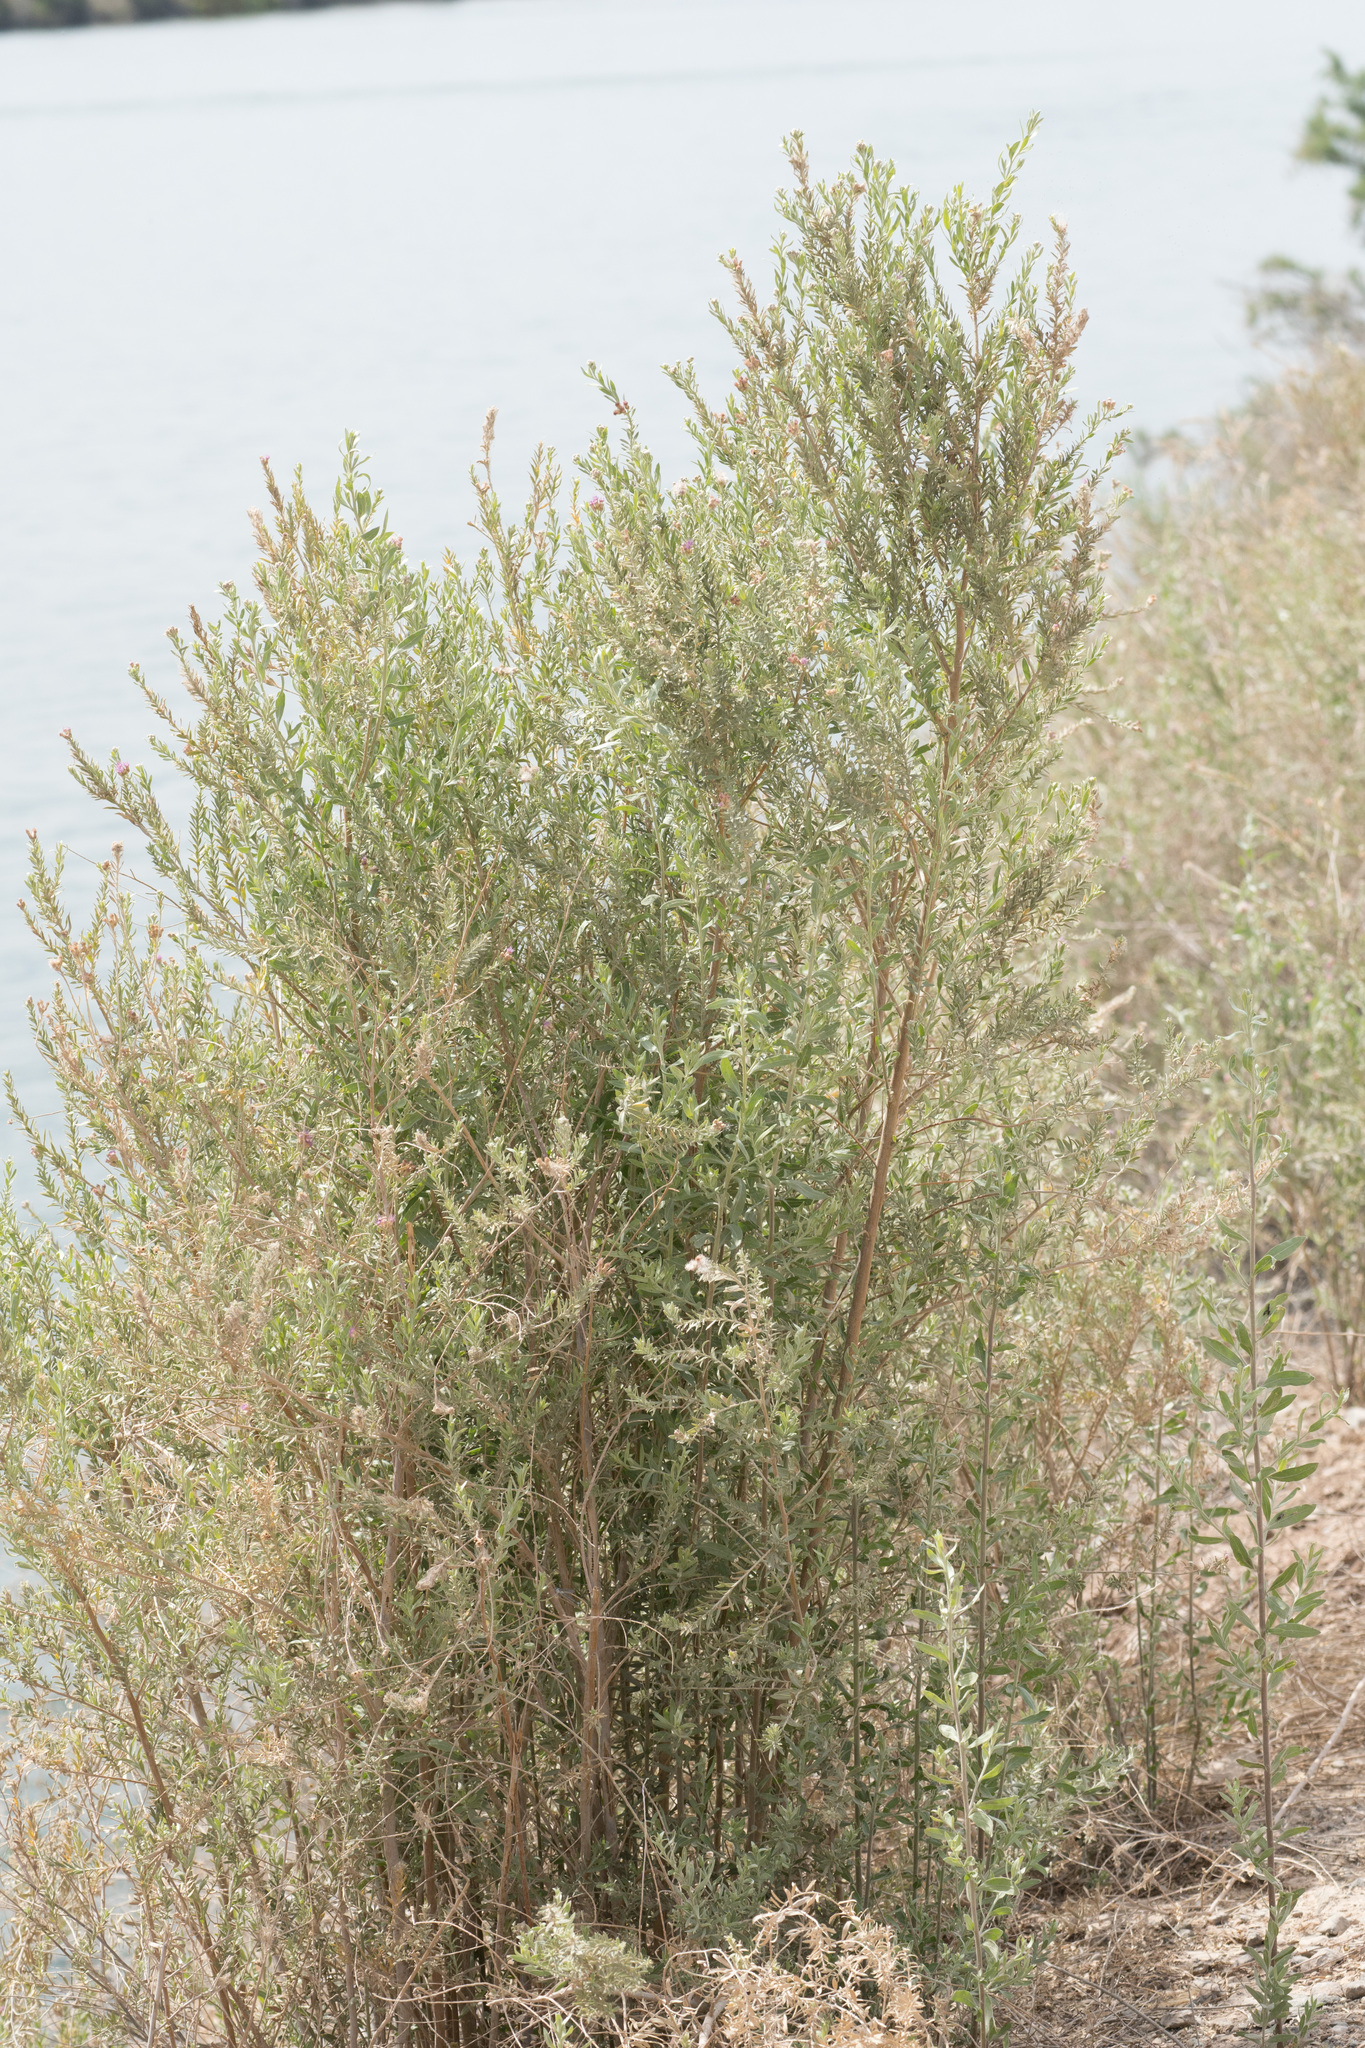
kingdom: Plantae
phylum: Tracheophyta
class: Magnoliopsida
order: Asterales
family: Asteraceae
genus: Pluchea
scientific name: Pluchea sericea
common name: Arrow-weed
